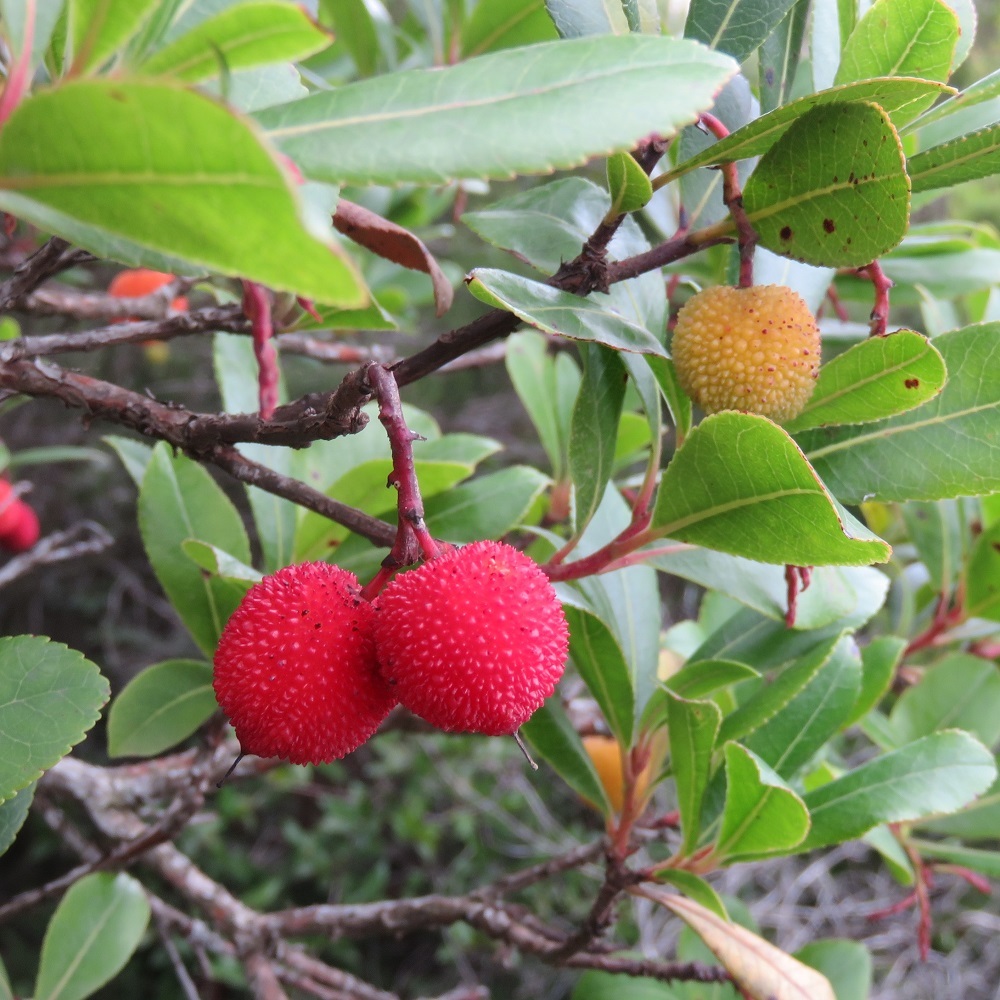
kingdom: Plantae
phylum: Tracheophyta
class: Magnoliopsida
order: Ericales
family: Ericaceae
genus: Arbutus
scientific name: Arbutus unedo
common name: Strawberry-tree
